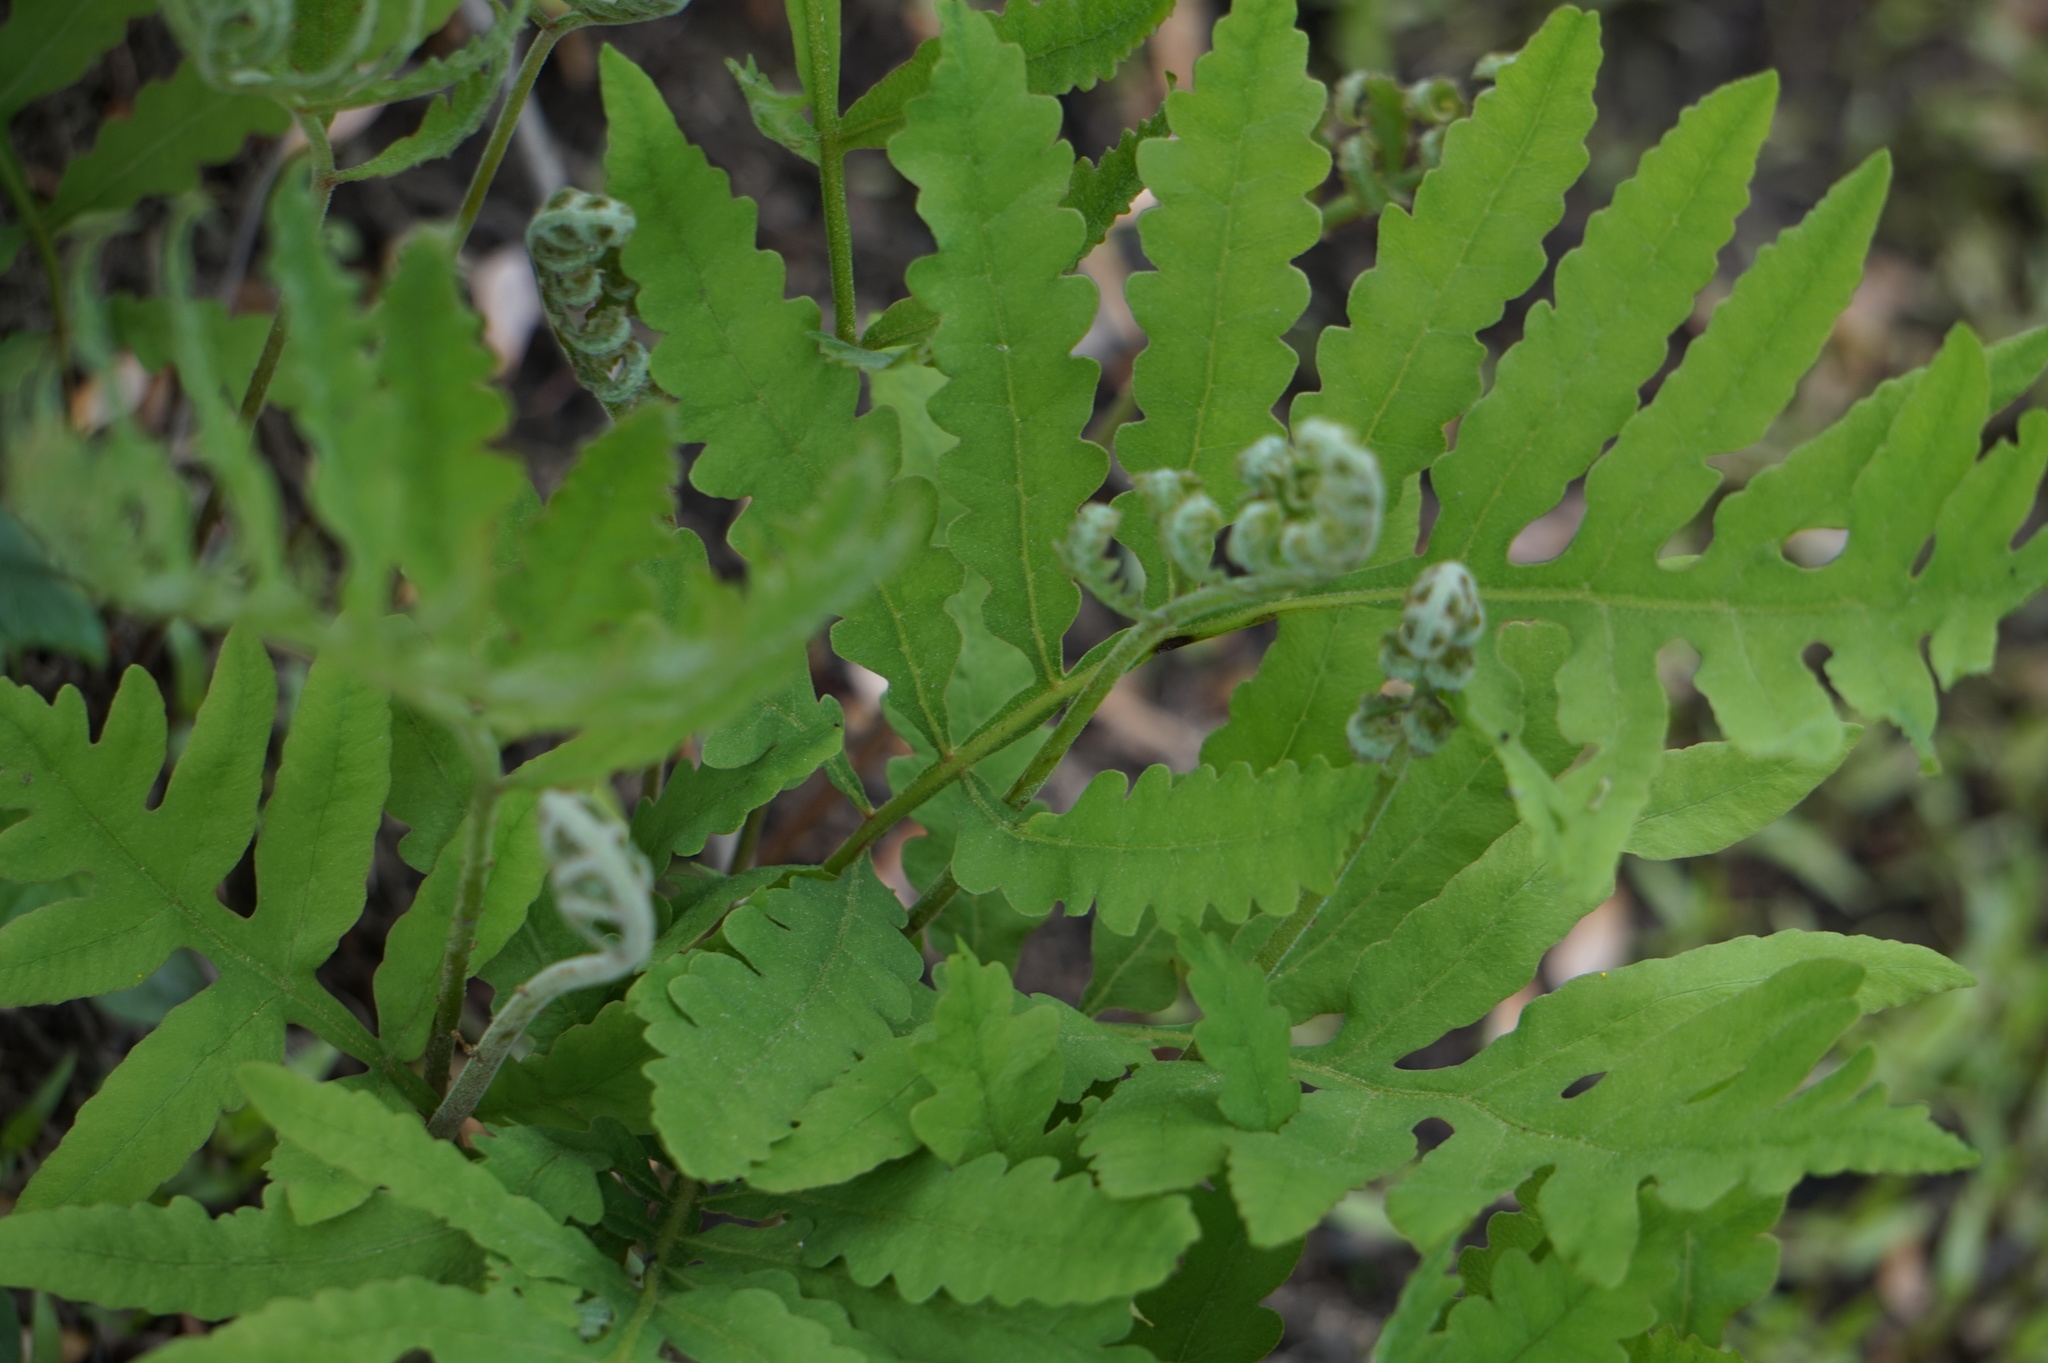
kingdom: Plantae
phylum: Tracheophyta
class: Polypodiopsida
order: Polypodiales
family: Onocleaceae
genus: Onoclea
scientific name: Onoclea sensibilis
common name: Sensitive fern
